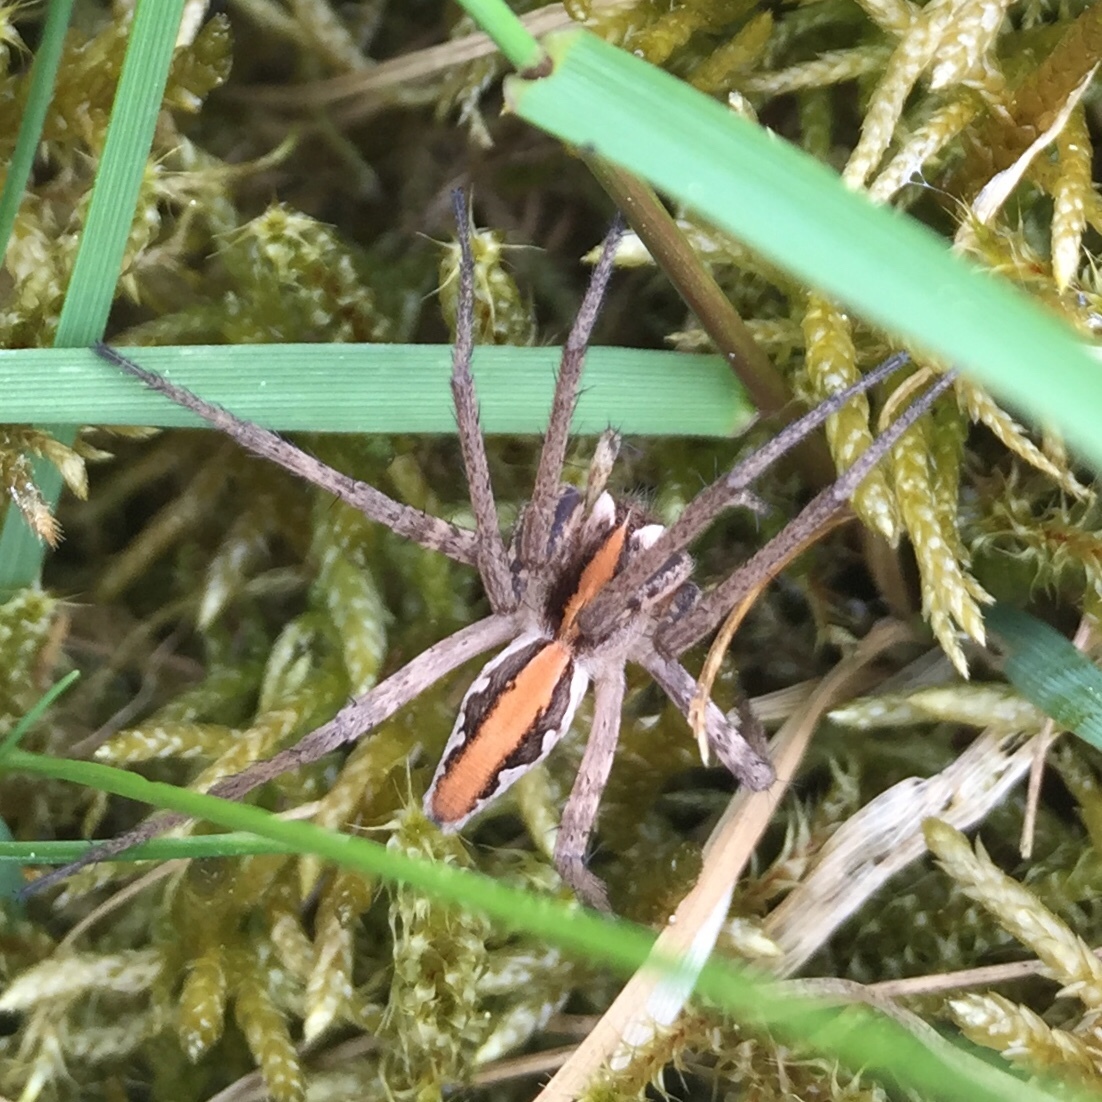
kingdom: Animalia
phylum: Arthropoda
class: Arachnida
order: Araneae
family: Pisauridae
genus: Pisaura
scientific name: Pisaura mirabilis
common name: Tent spider
